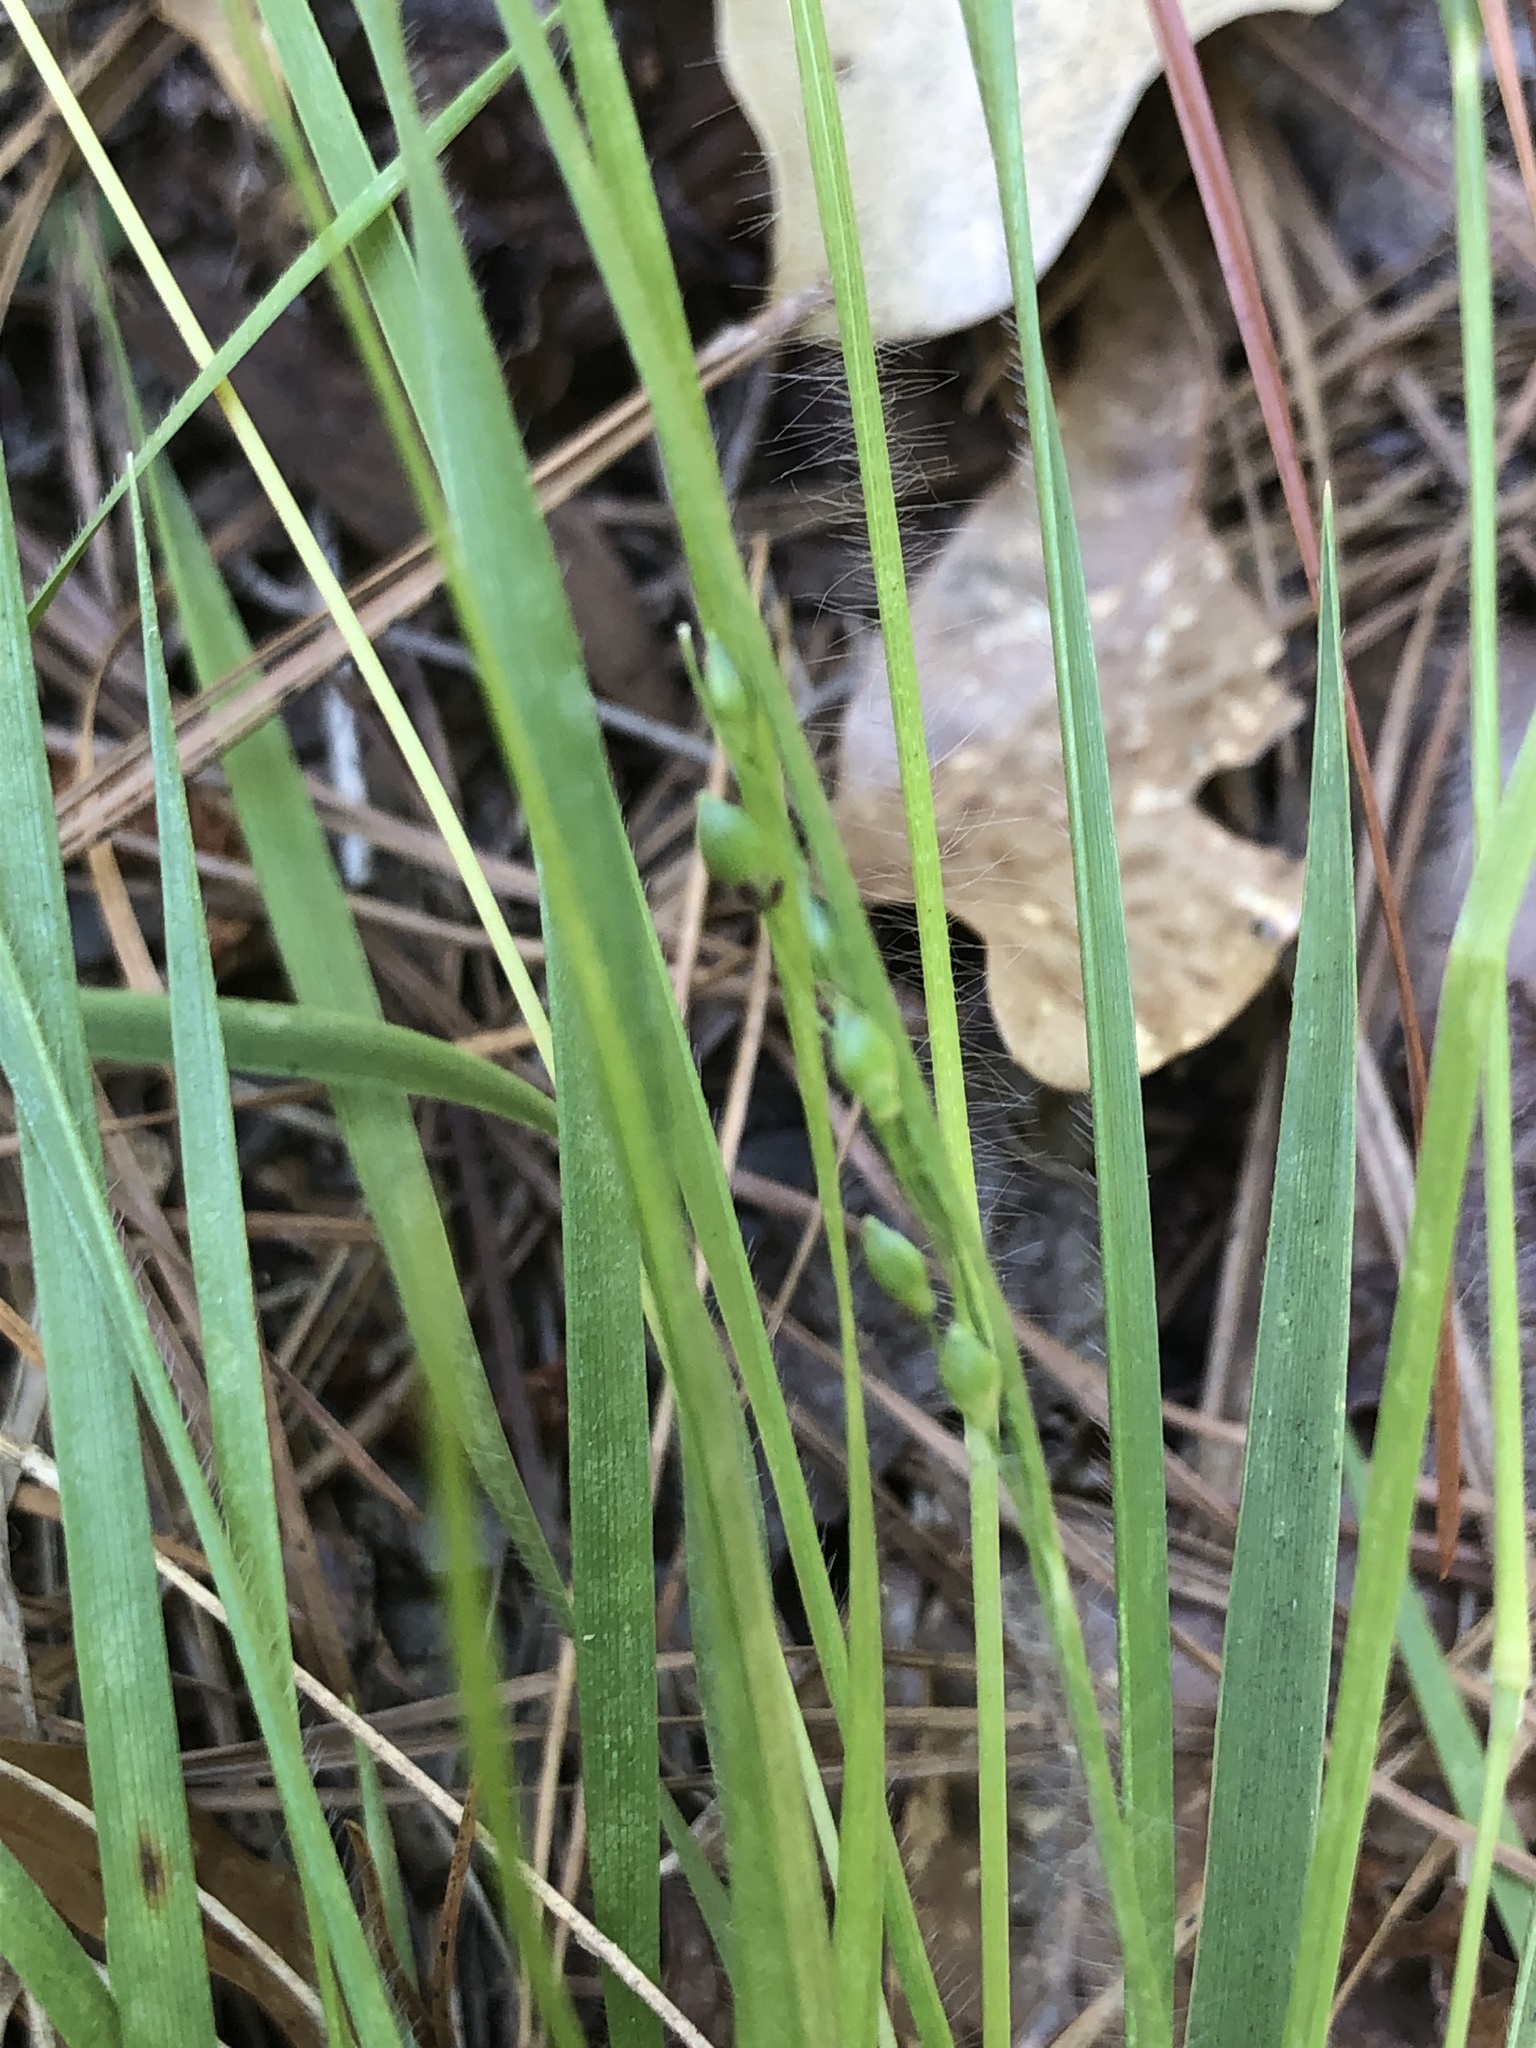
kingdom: Plantae
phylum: Tracheophyta
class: Liliopsida
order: Poales
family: Poaceae
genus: Dichanthelium
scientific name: Dichanthelium depauperatum
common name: Depauperate panicgrass
